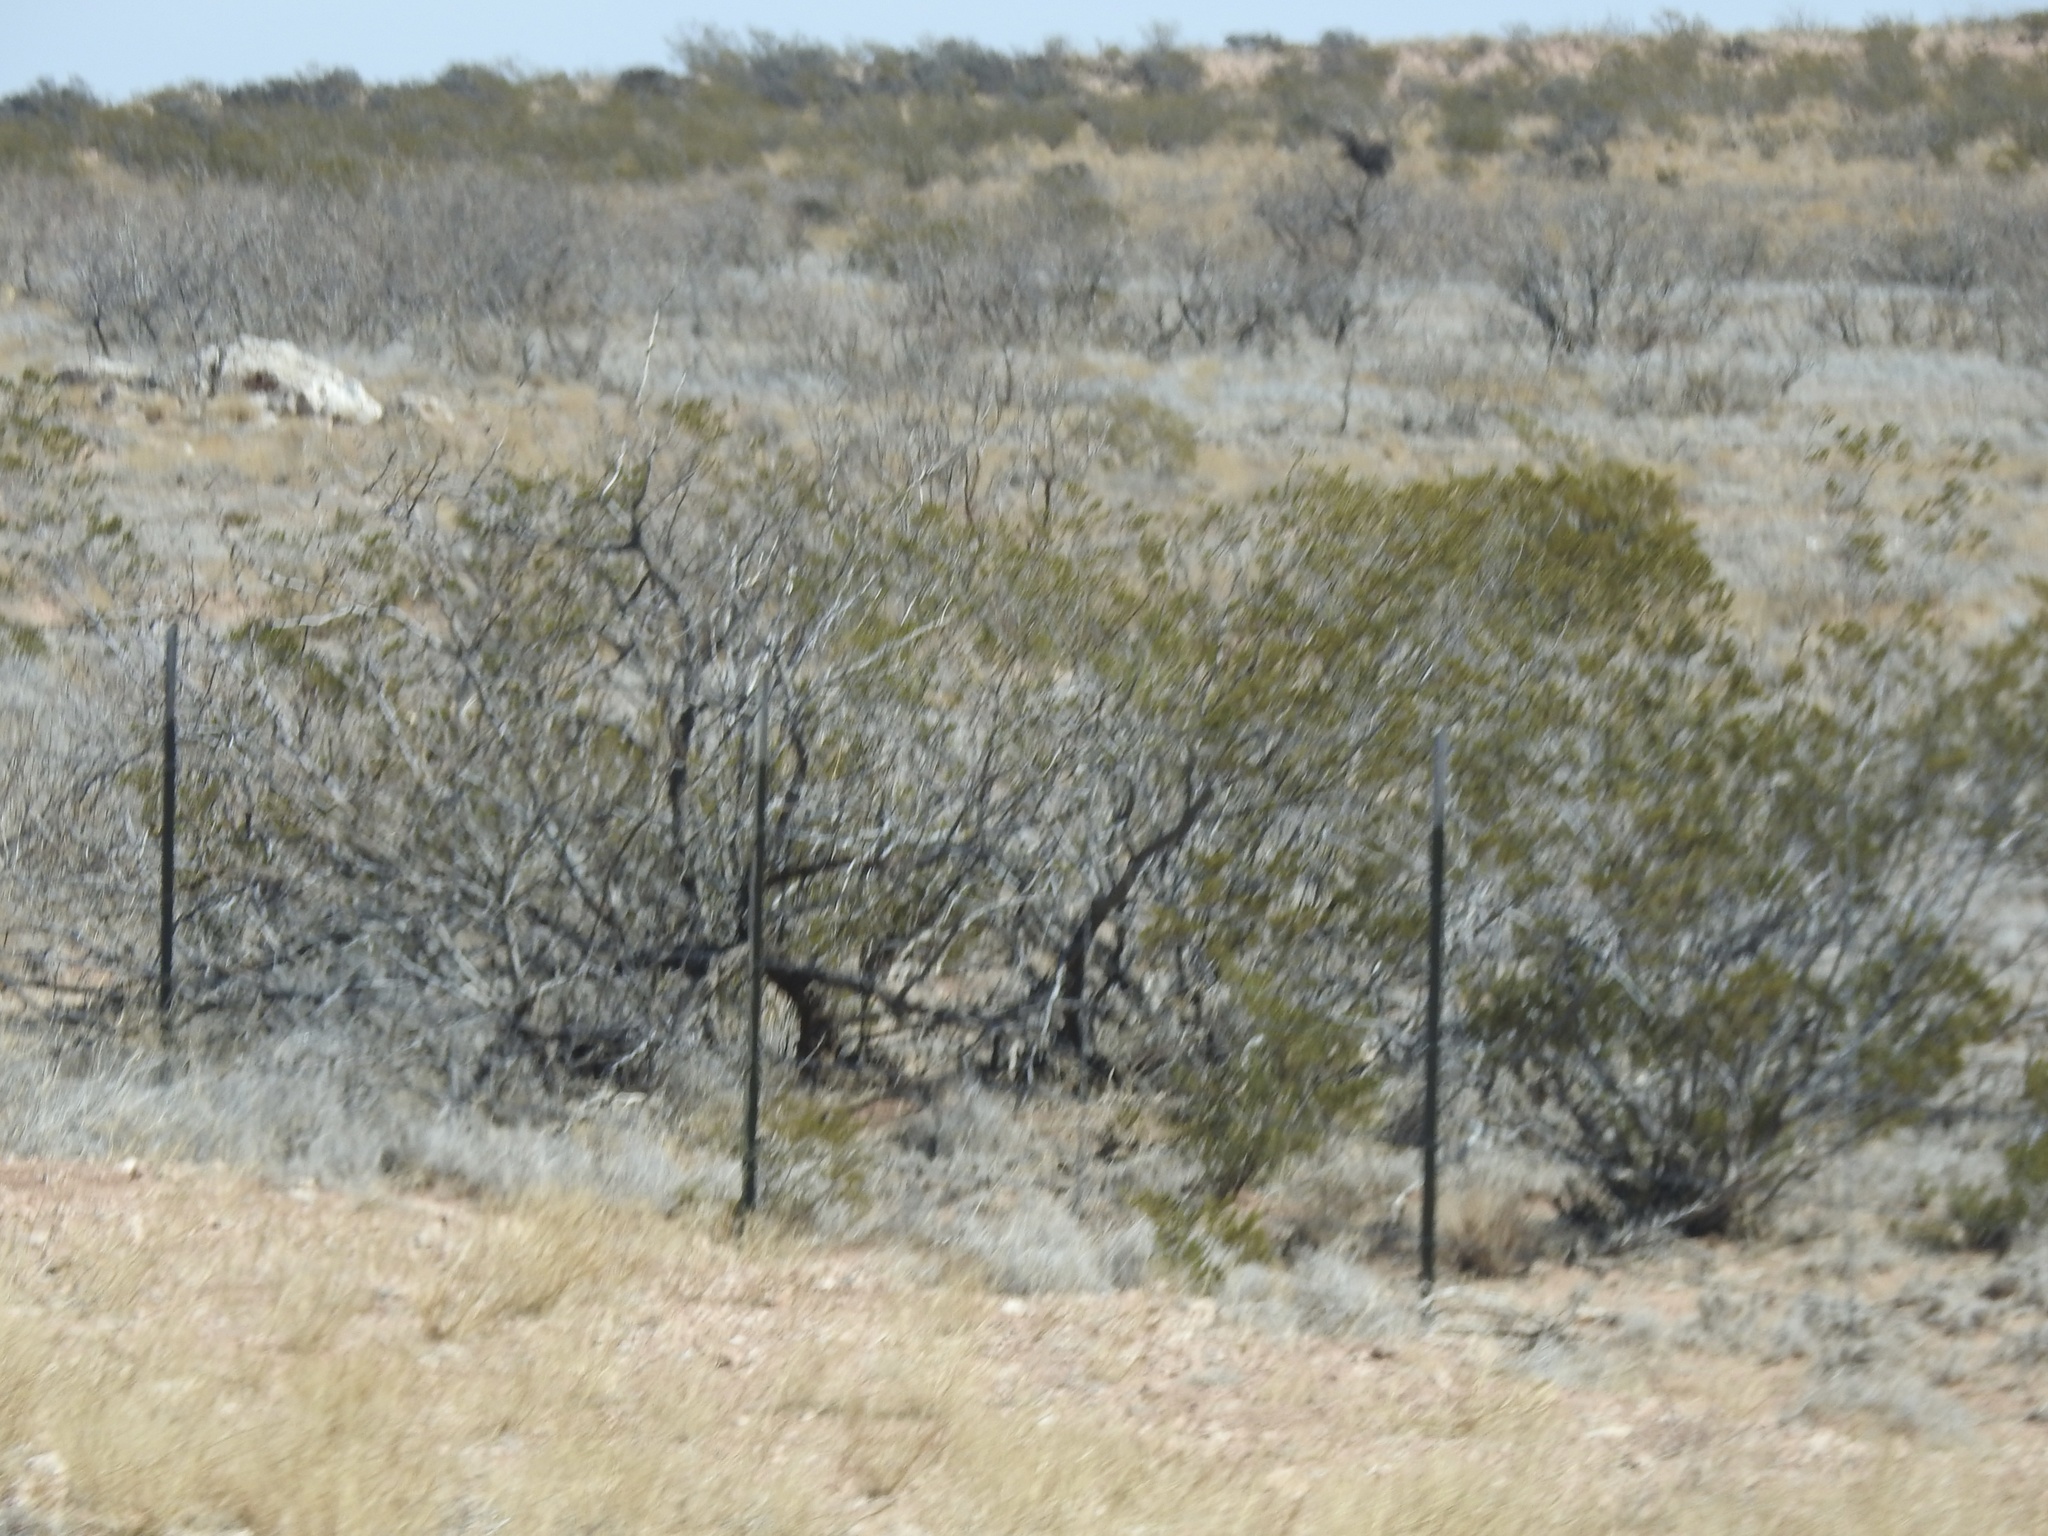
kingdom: Plantae
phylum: Tracheophyta
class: Magnoliopsida
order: Zygophyllales
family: Zygophyllaceae
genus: Larrea
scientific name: Larrea tridentata
